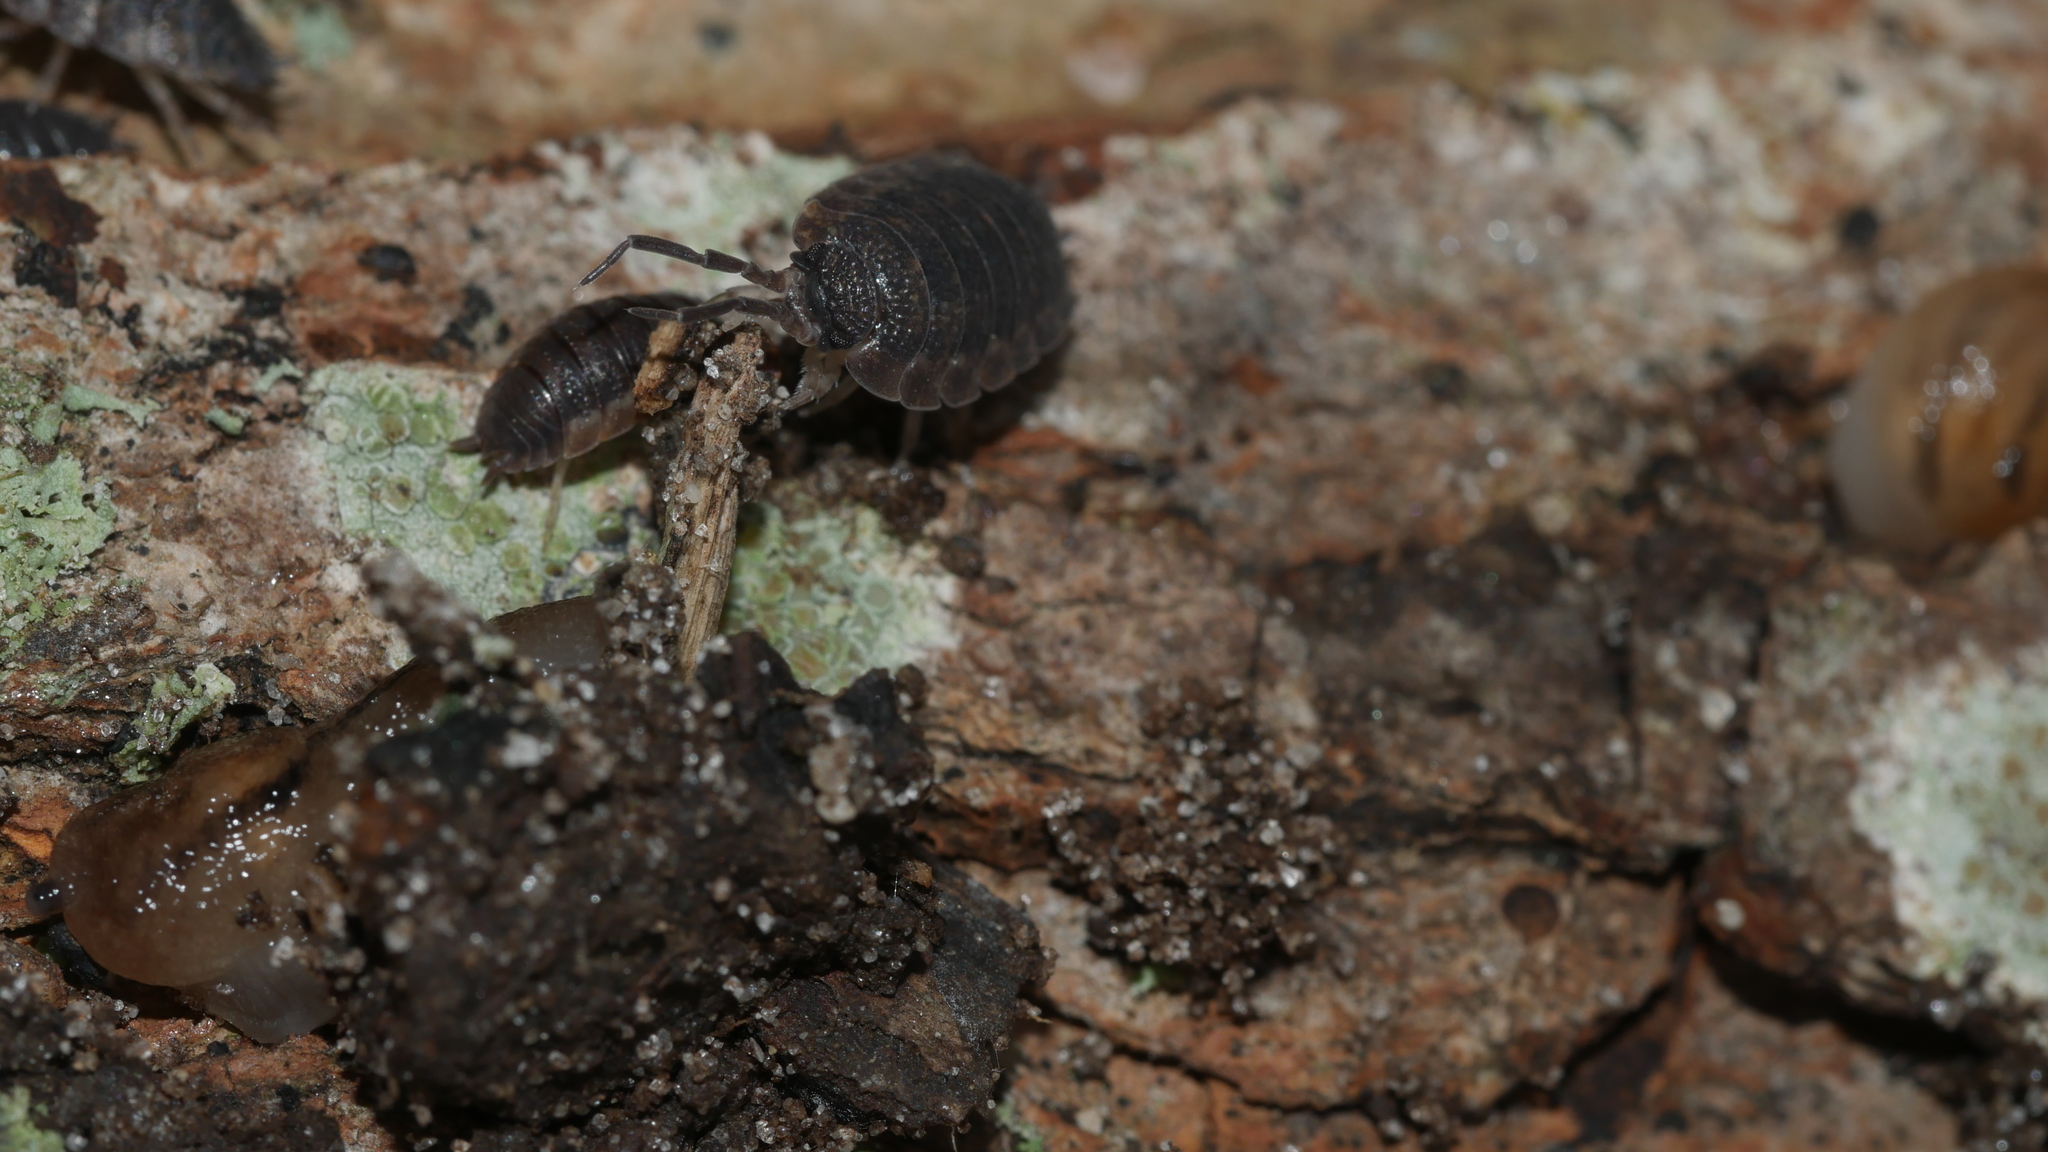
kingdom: Animalia
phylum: Arthropoda
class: Malacostraca
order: Isopoda
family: Porcellionidae
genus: Porcellio
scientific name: Porcellio scaber
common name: Common rough woodlouse
